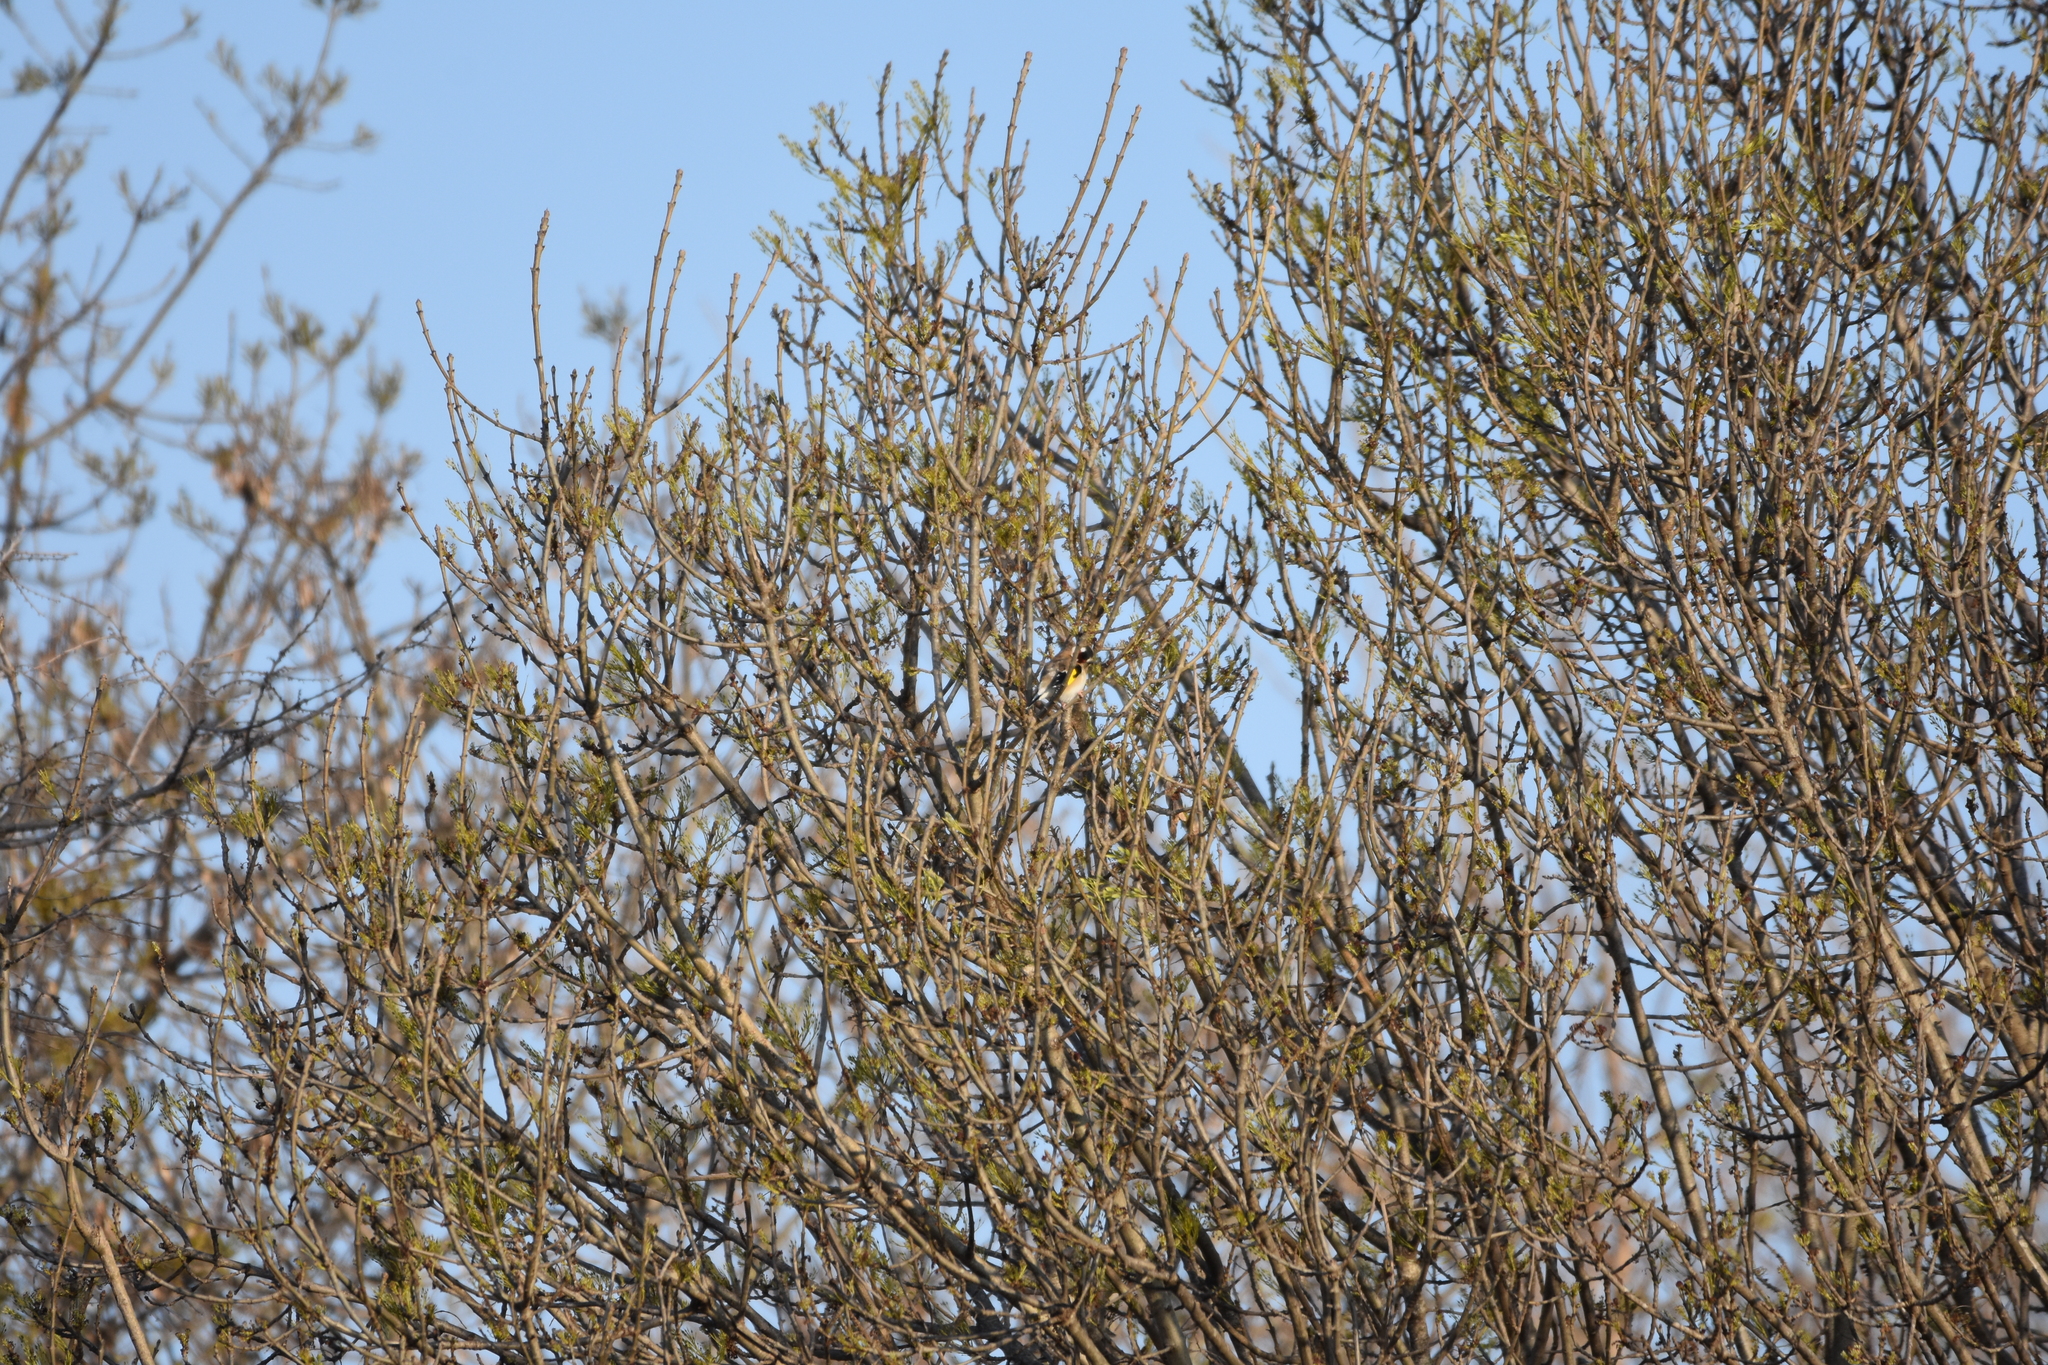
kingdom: Animalia
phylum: Chordata
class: Aves
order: Passeriformes
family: Fringillidae
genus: Carduelis
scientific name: Carduelis carduelis
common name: European goldfinch
